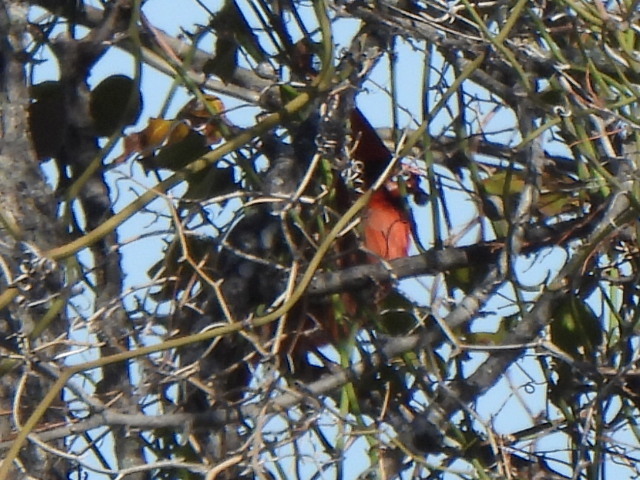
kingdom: Animalia
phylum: Chordata
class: Aves
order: Passeriformes
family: Cardinalidae
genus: Cardinalis
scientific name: Cardinalis cardinalis
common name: Northern cardinal
